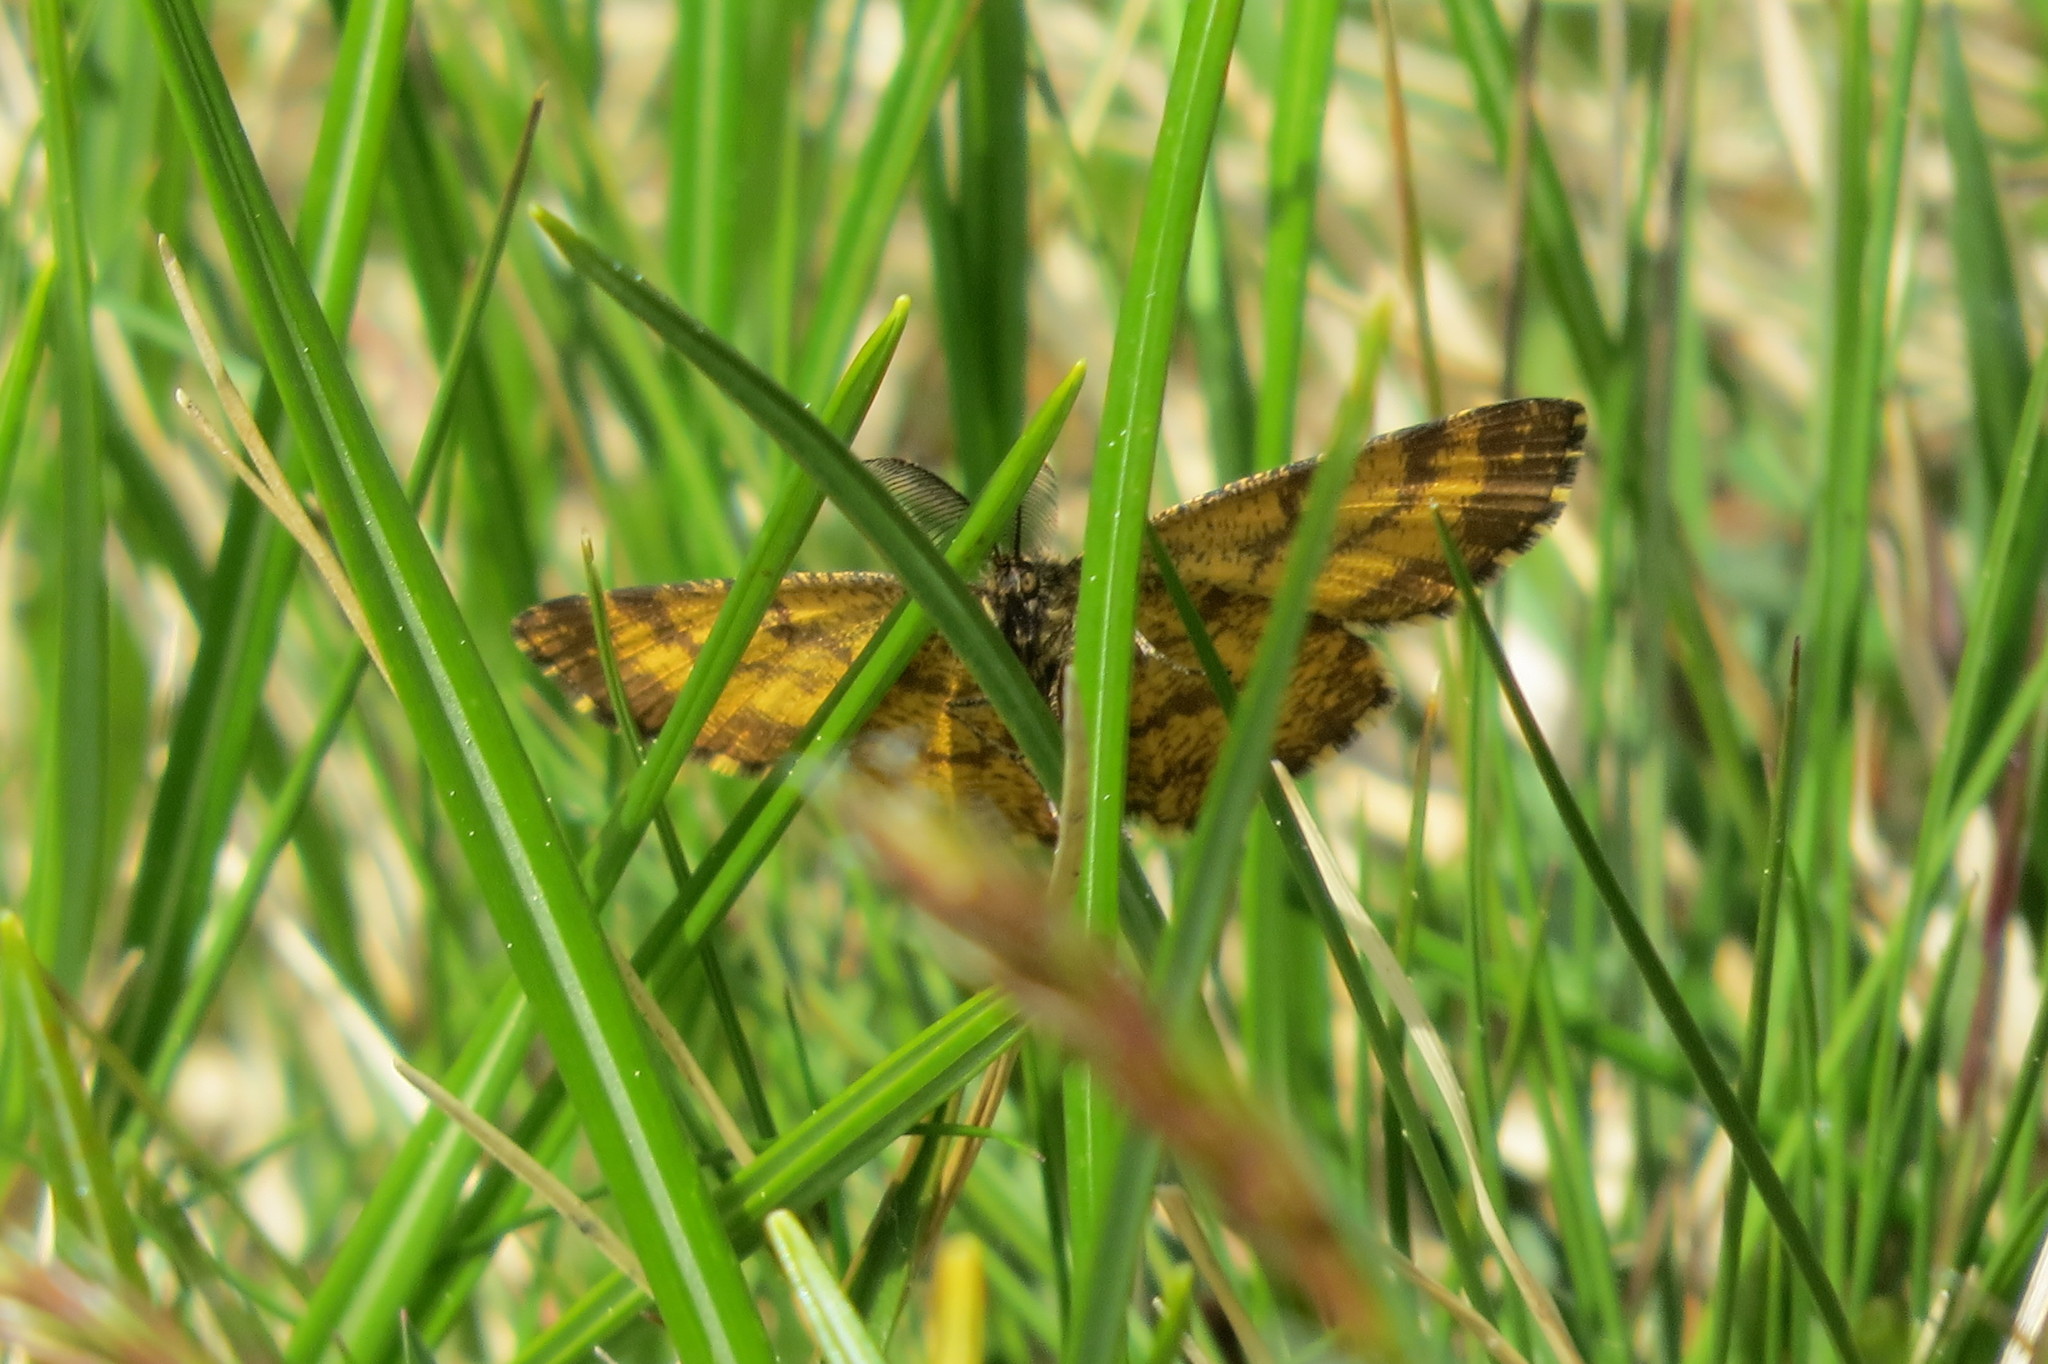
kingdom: Animalia
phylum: Arthropoda
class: Insecta
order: Lepidoptera
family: Geometridae
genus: Ematurga
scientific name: Ematurga atomaria
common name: Common heath
